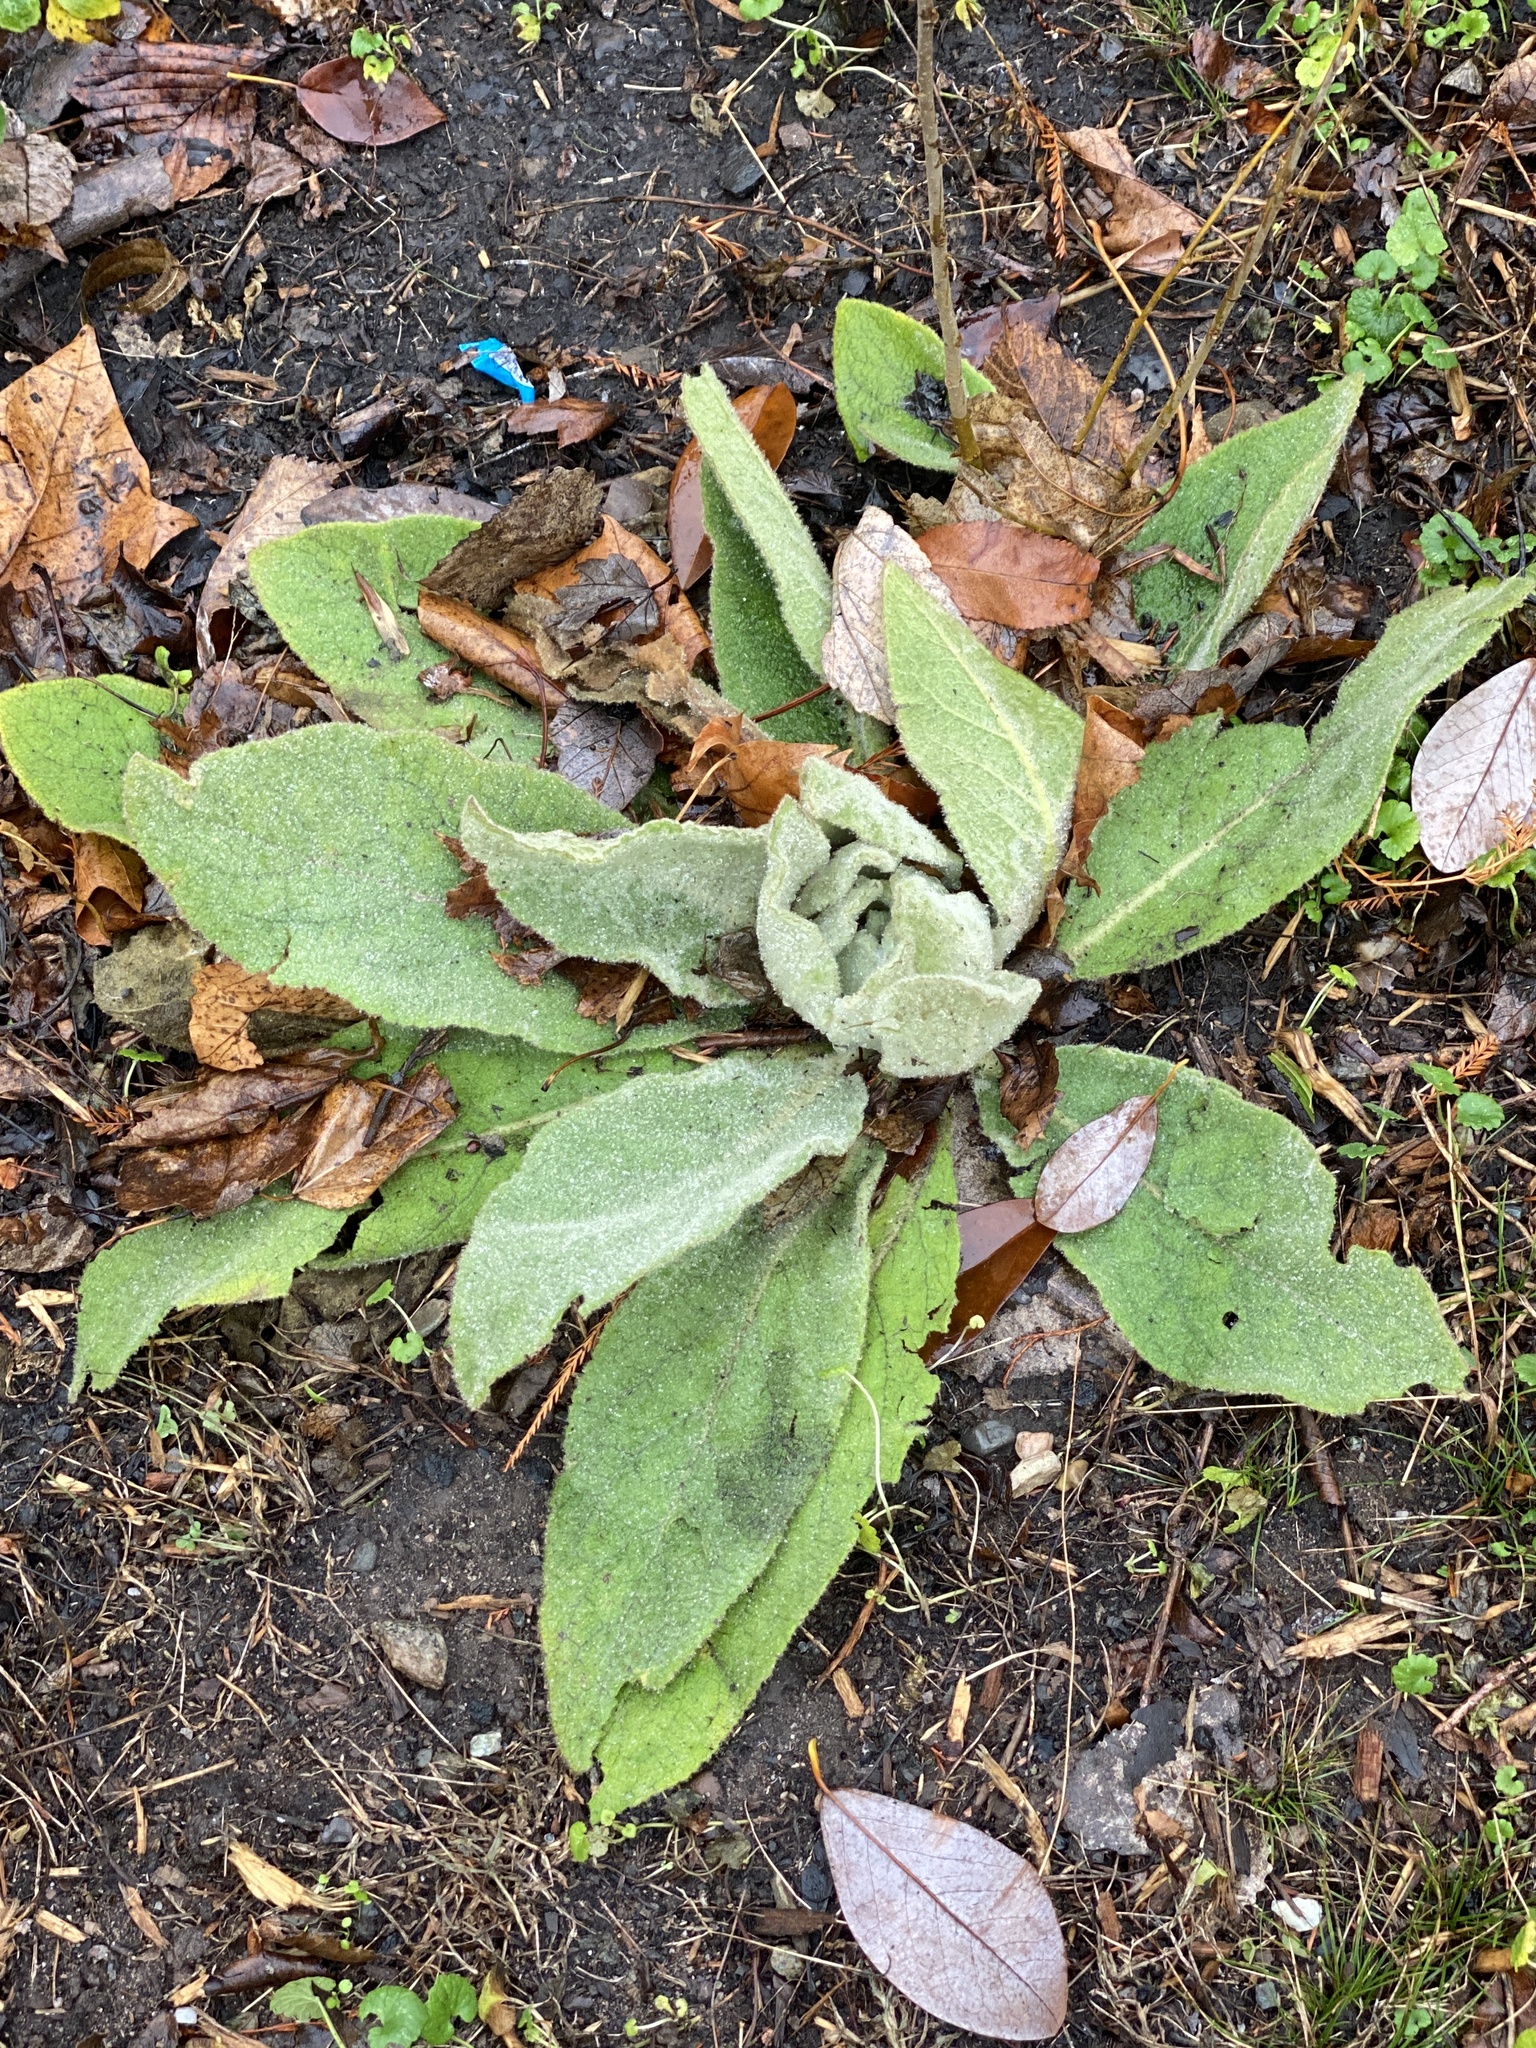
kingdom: Plantae
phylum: Tracheophyta
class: Magnoliopsida
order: Lamiales
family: Scrophulariaceae
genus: Verbascum
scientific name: Verbascum thapsus
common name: Common mullein
